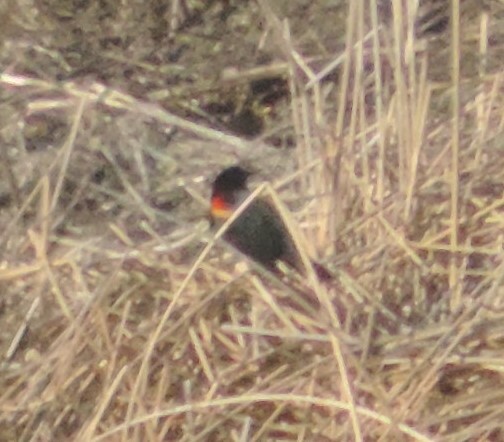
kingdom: Animalia
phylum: Chordata
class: Aves
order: Passeriformes
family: Icteridae
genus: Agelaius
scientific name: Agelaius phoeniceus
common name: Red-winged blackbird
